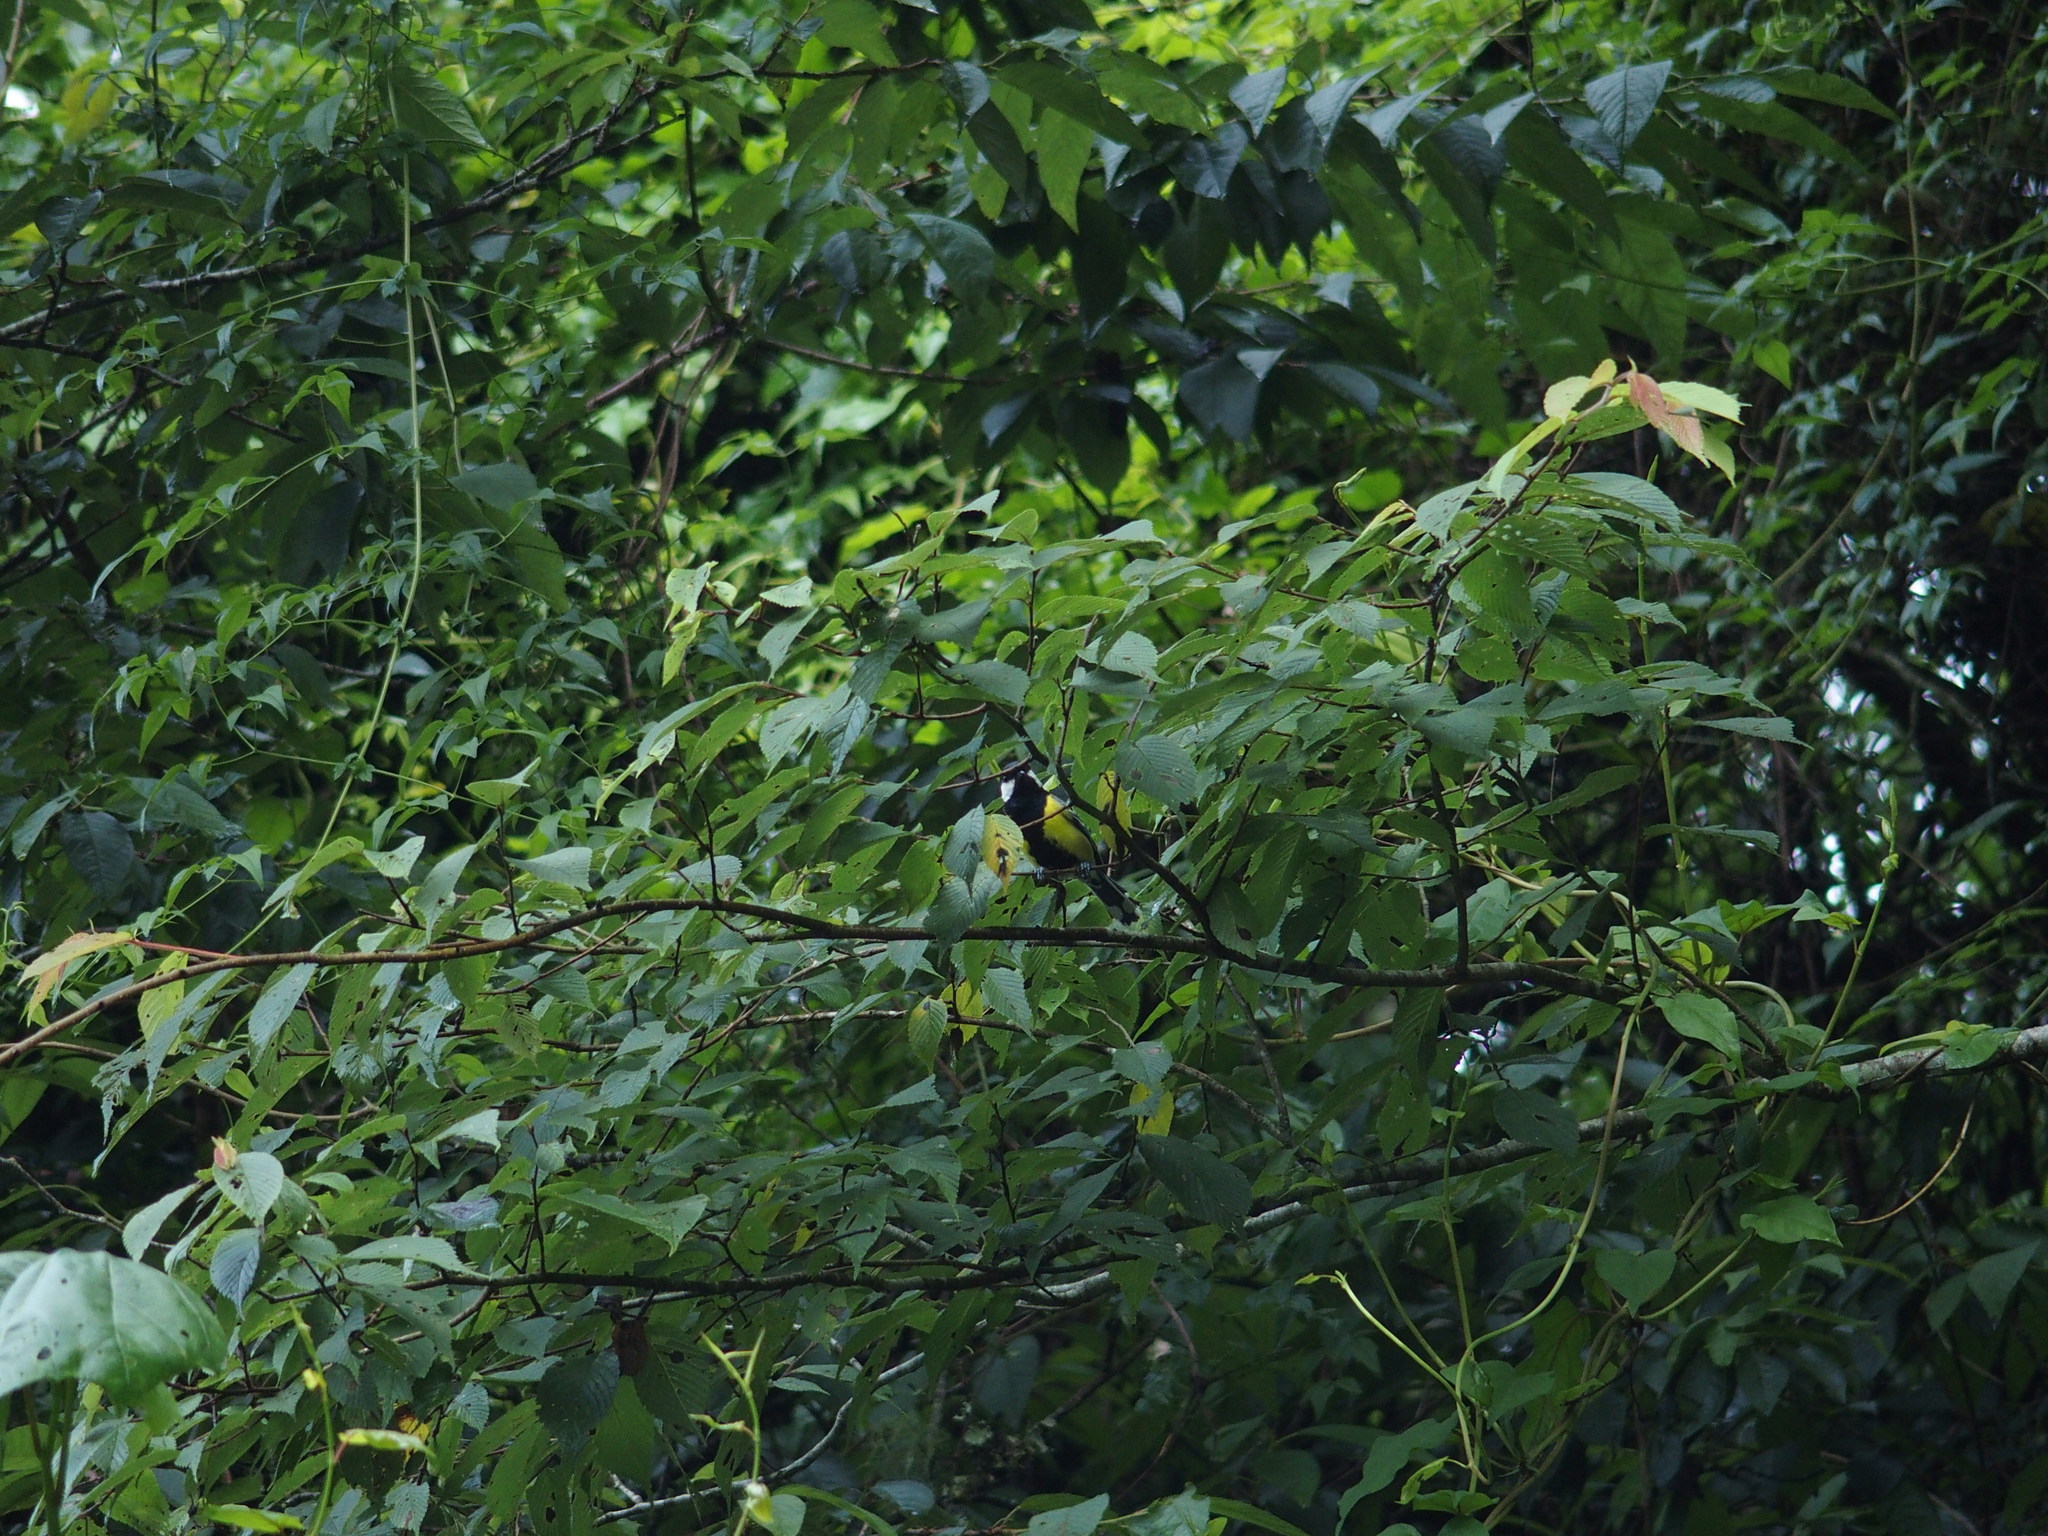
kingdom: Animalia
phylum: Chordata
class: Aves
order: Passeriformes
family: Paridae
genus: Parus
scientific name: Parus monticolus
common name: Green-backed tit
